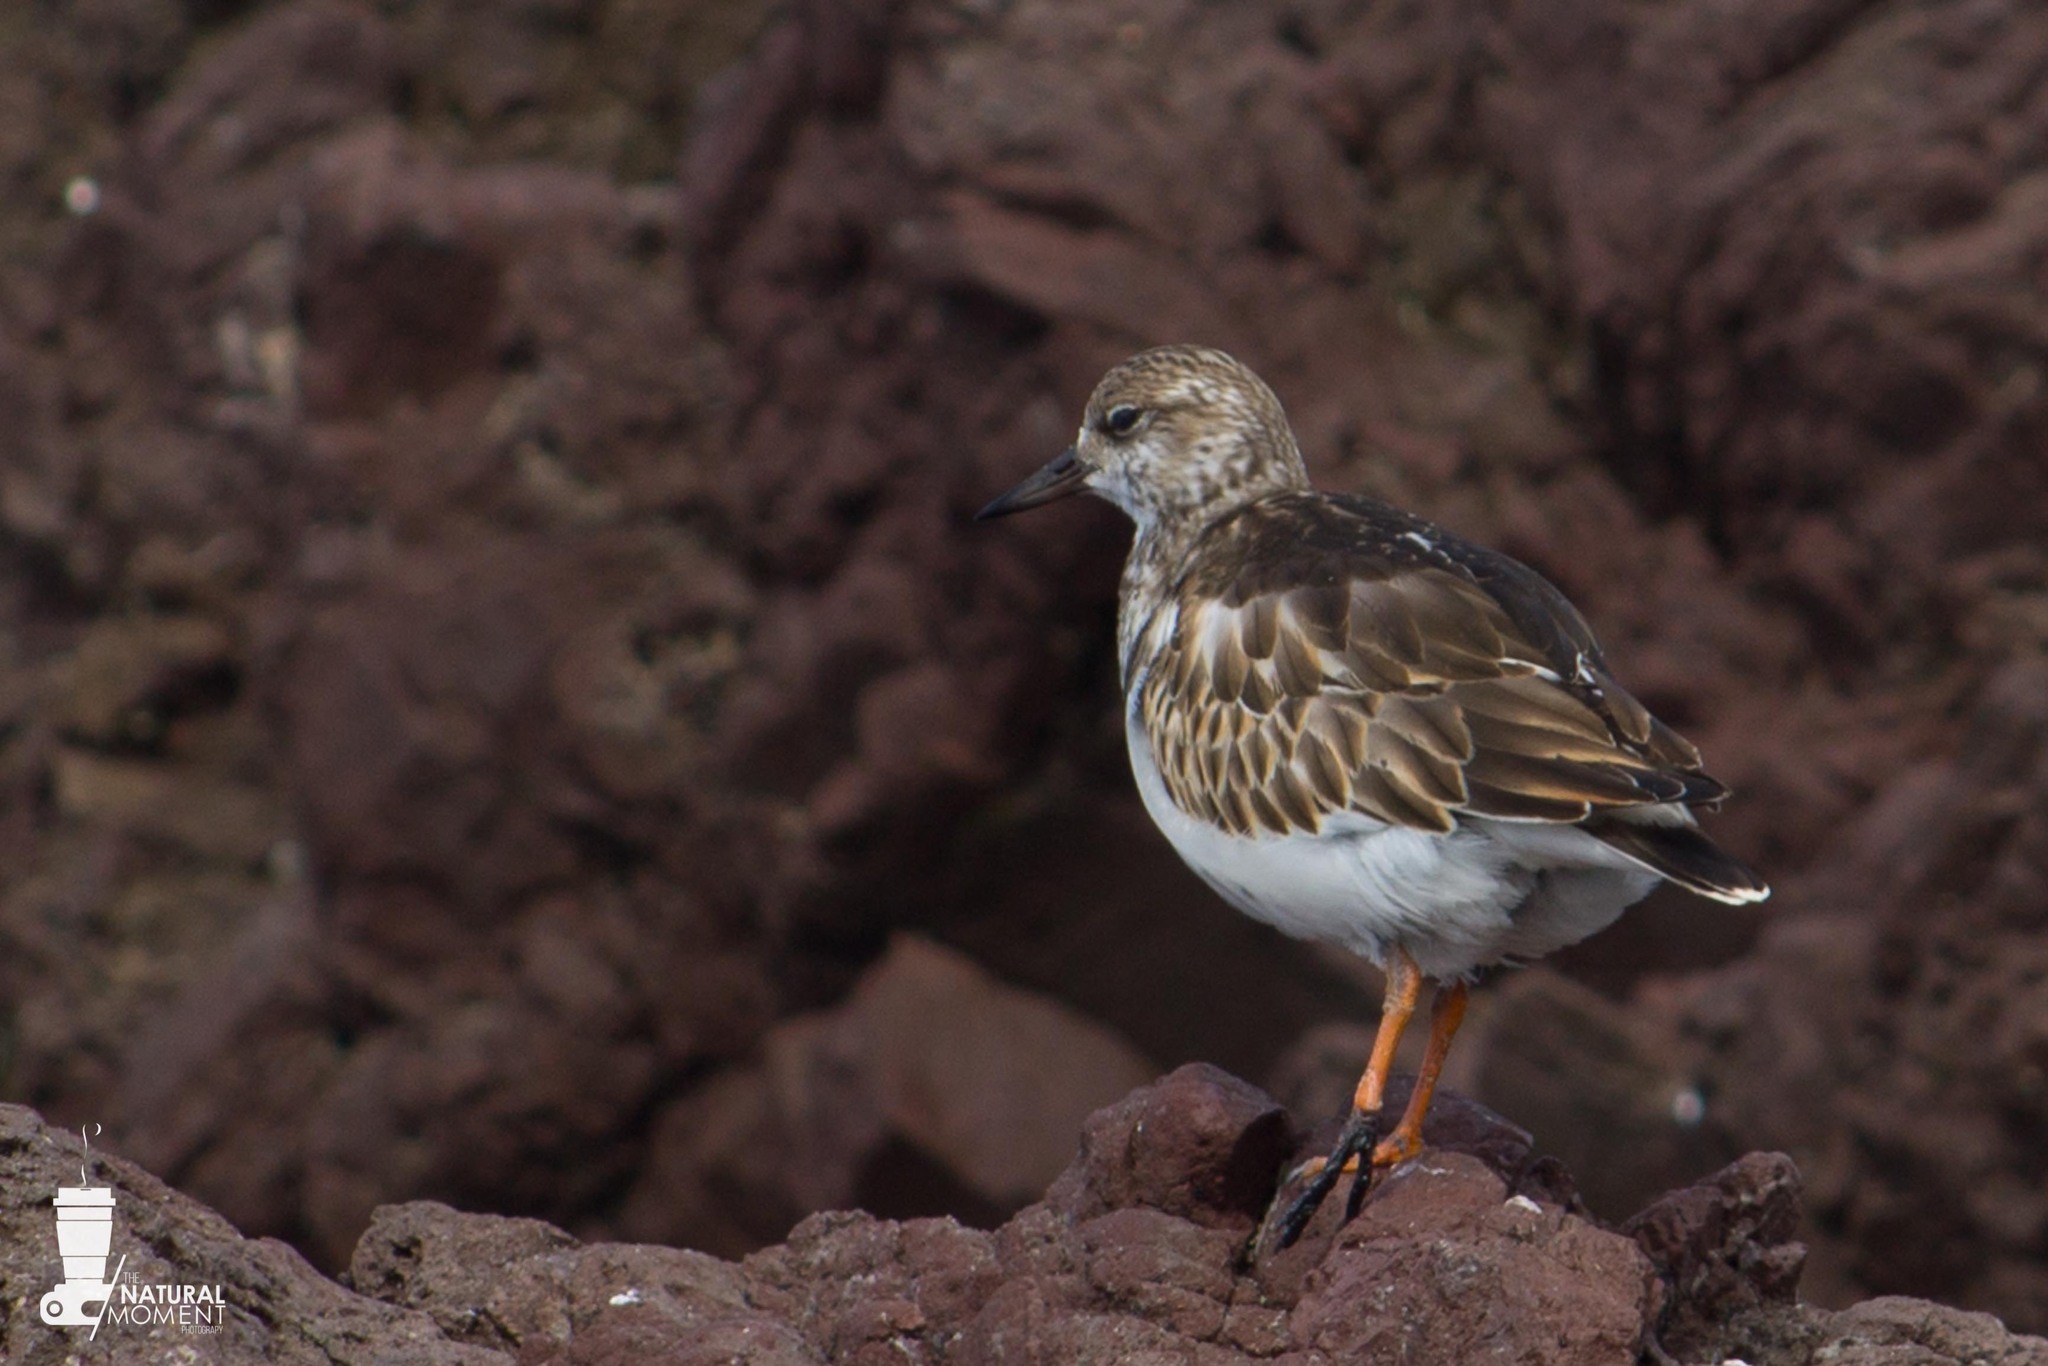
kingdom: Animalia
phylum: Chordata
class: Aves
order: Charadriiformes
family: Scolopacidae
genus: Arenaria
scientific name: Arenaria interpres
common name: Ruddy turnstone
